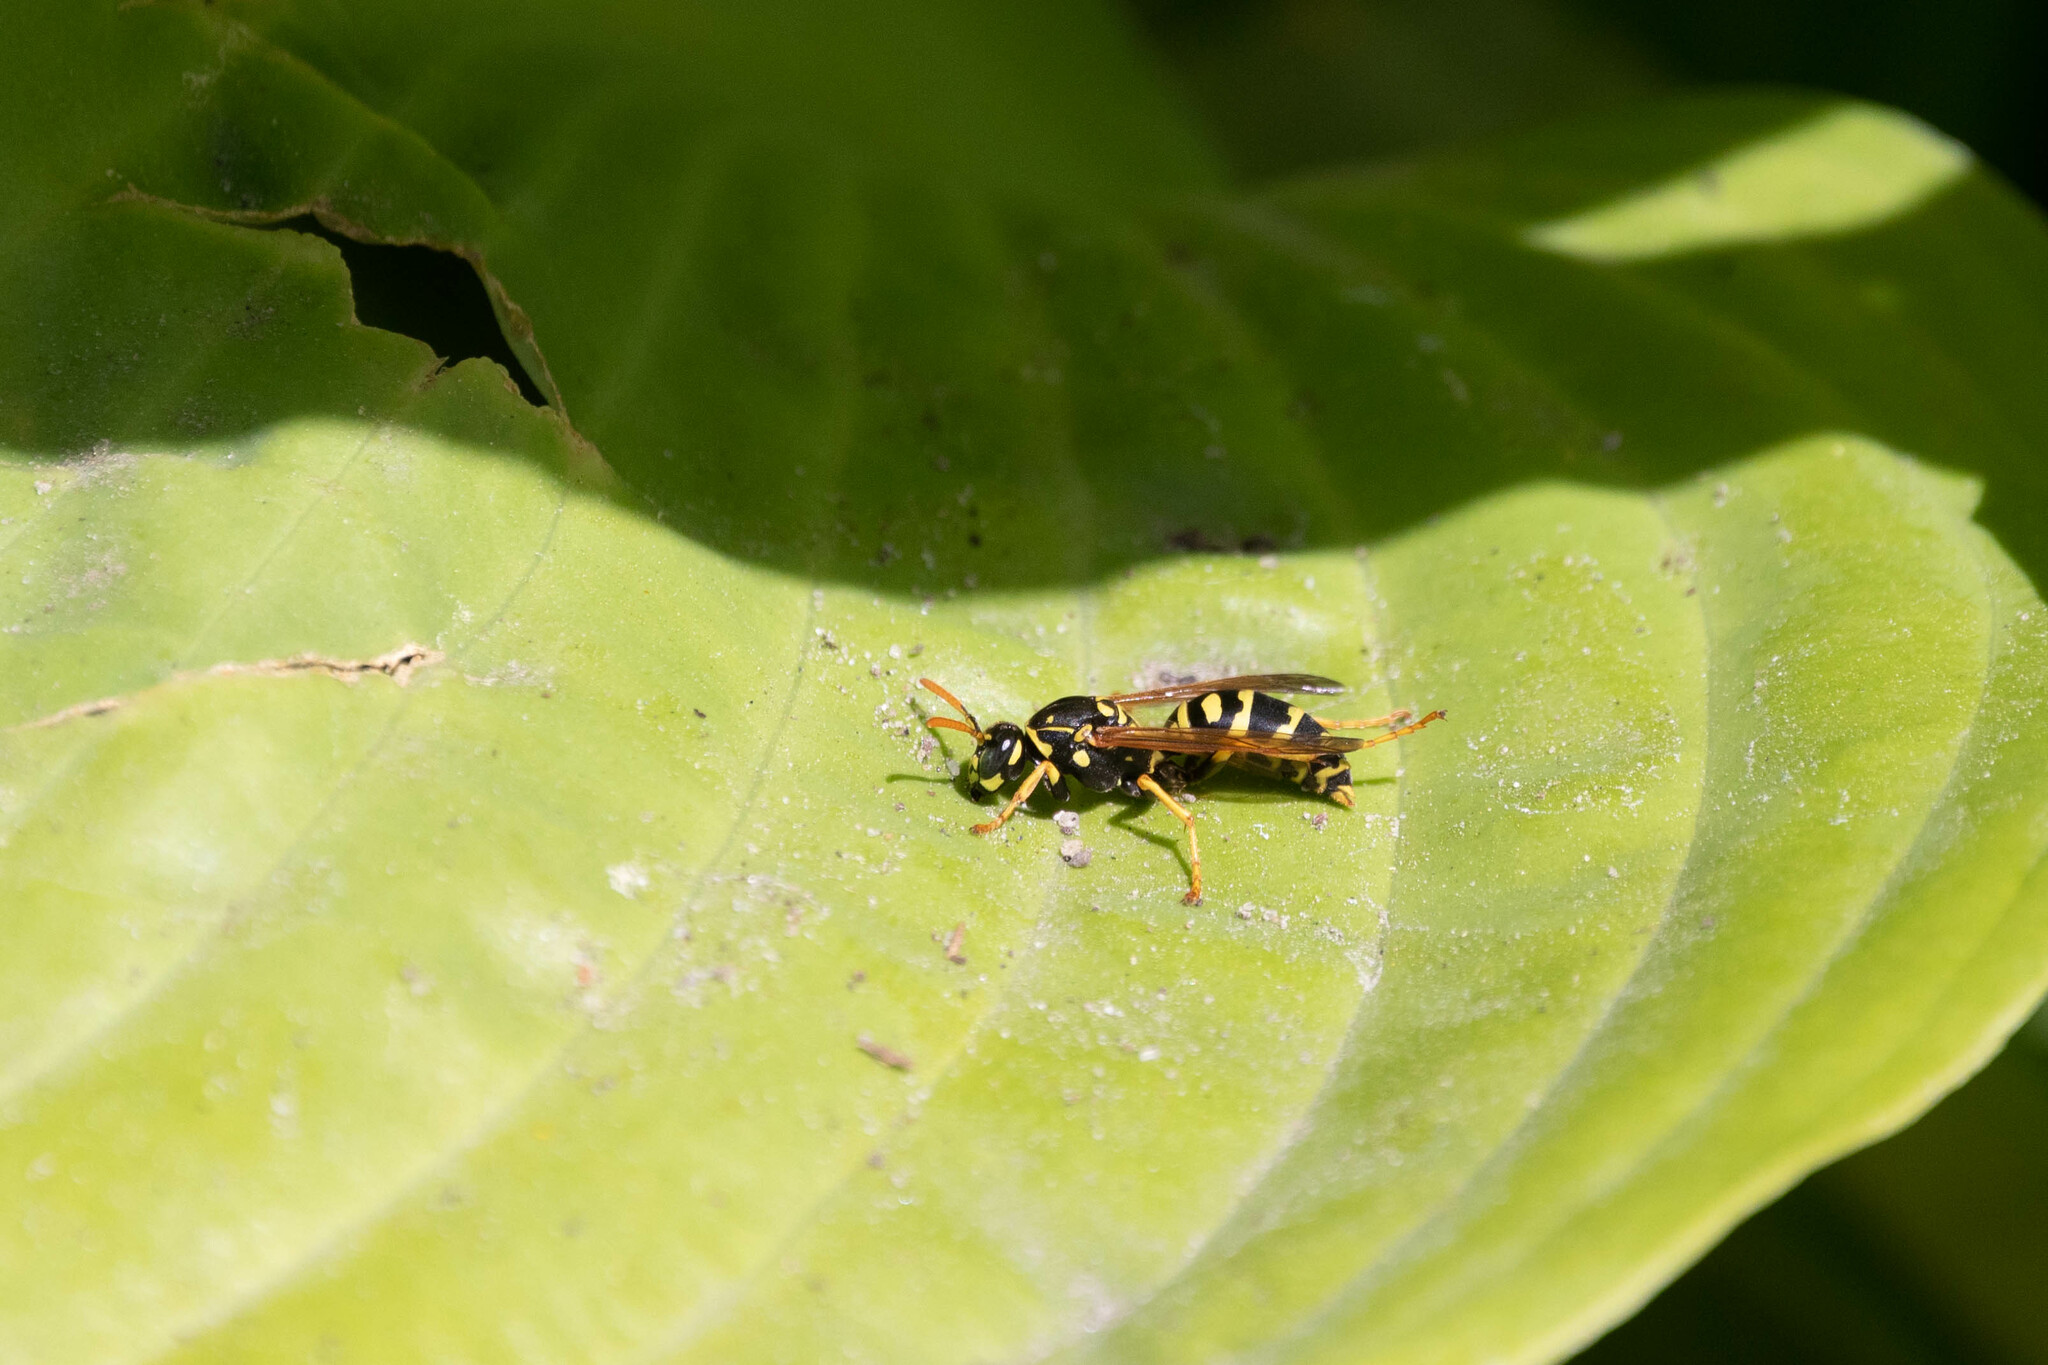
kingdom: Animalia
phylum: Arthropoda
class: Insecta
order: Hymenoptera
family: Eumenidae
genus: Polistes
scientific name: Polistes dominula
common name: Paper wasp
